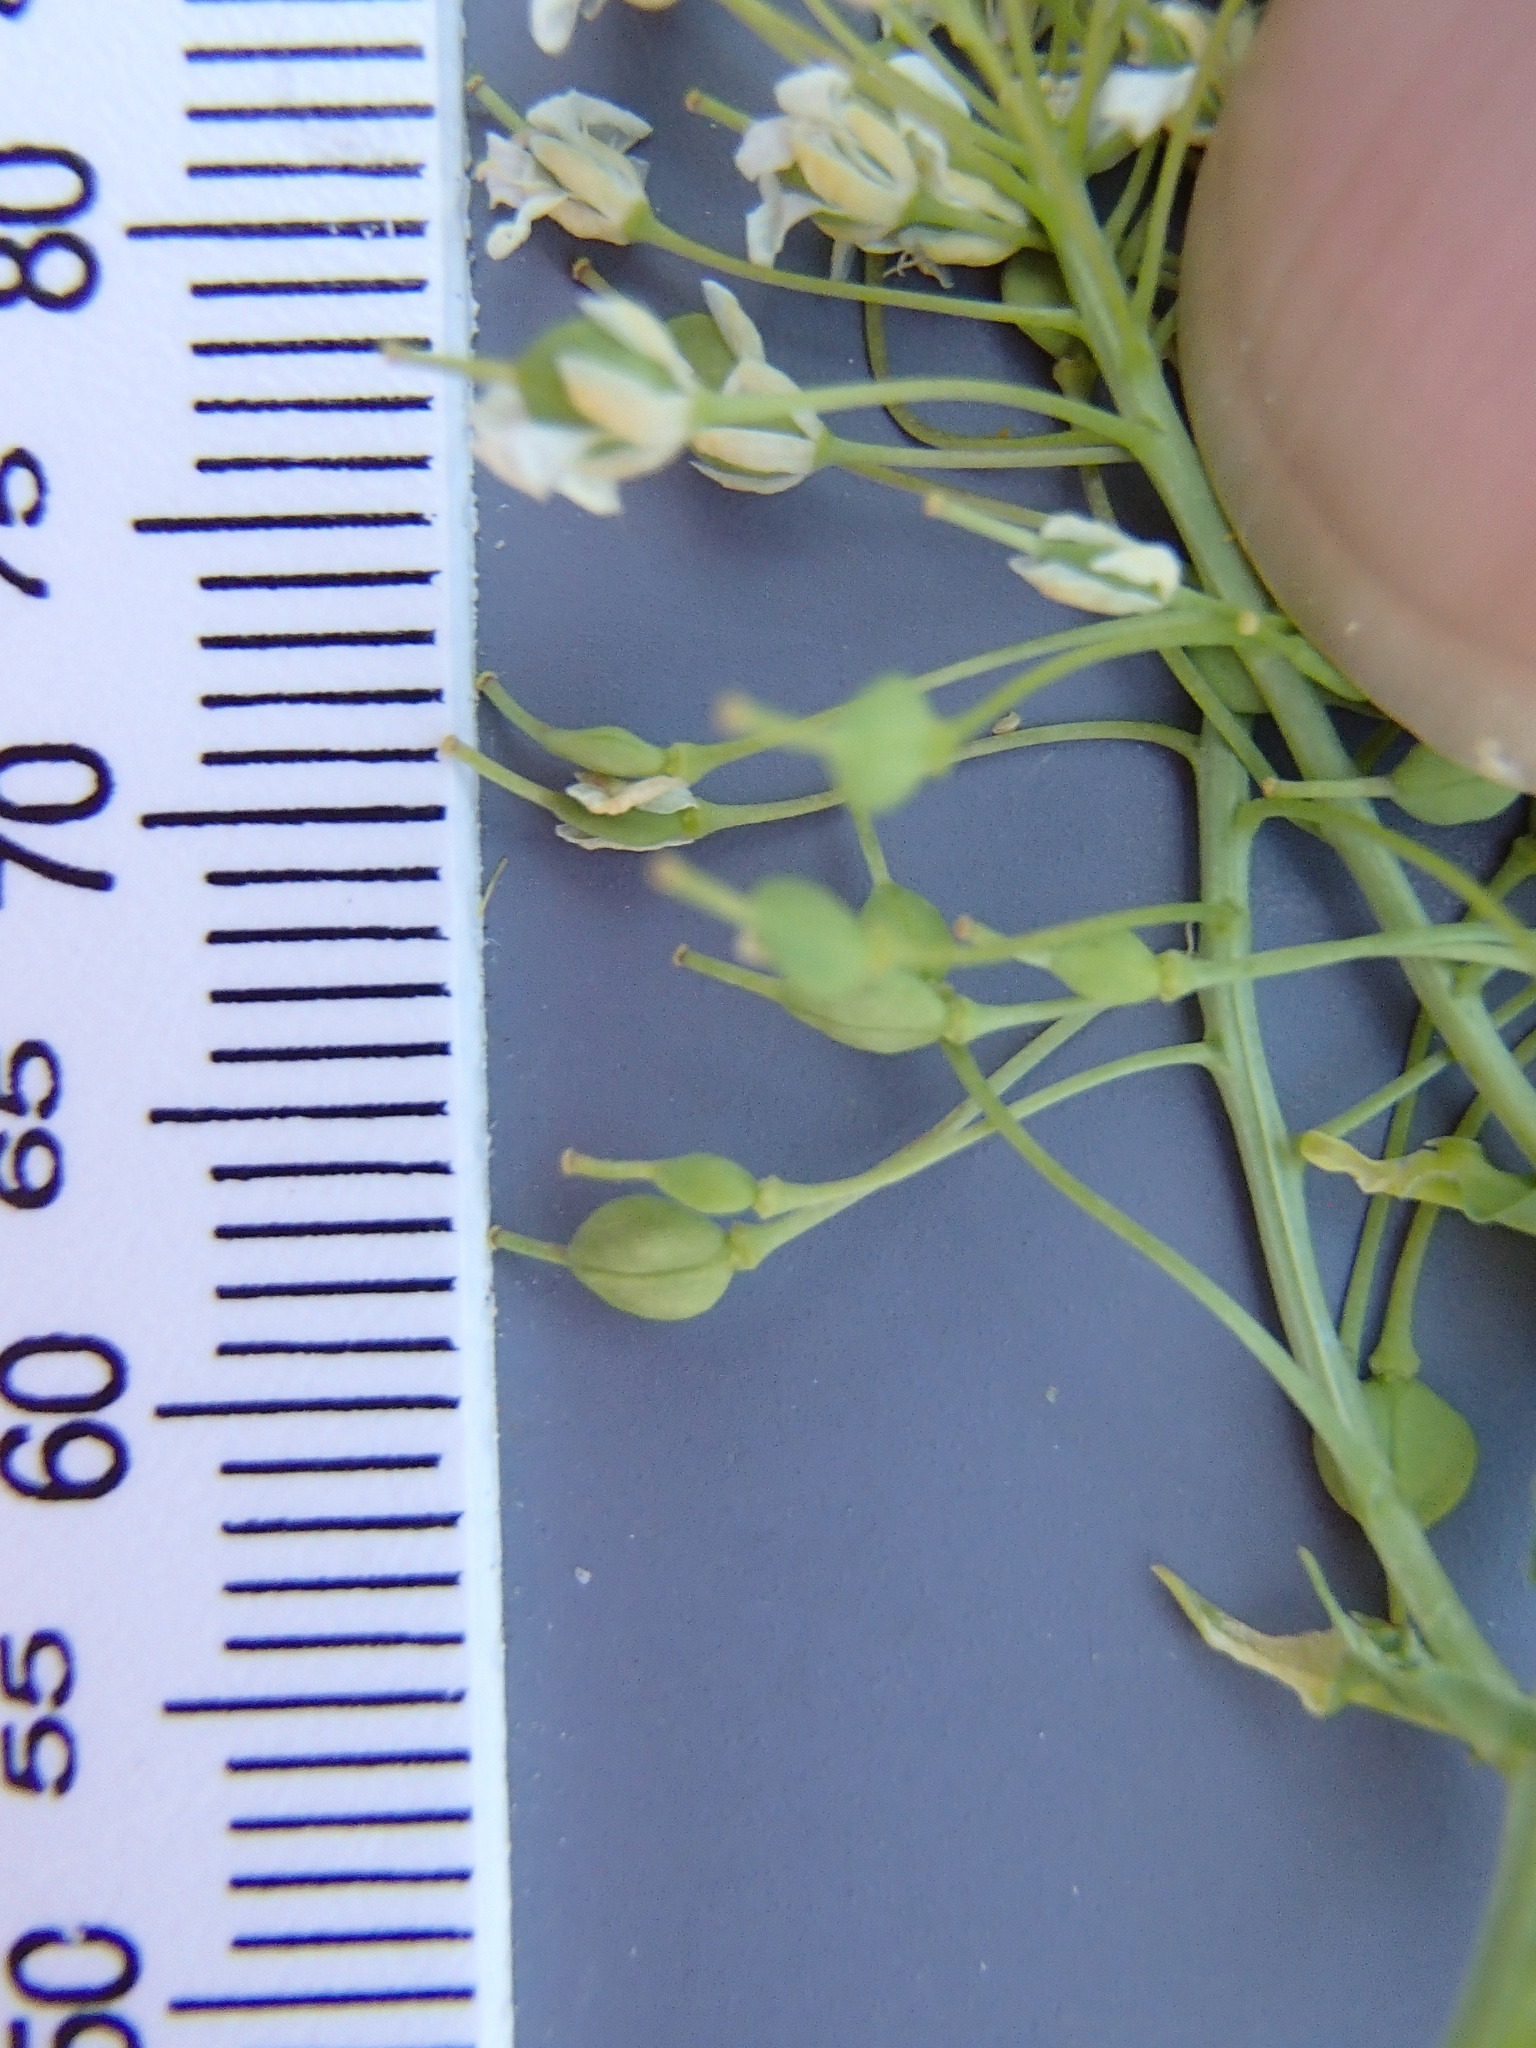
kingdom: Plantae
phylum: Tracheophyta
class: Magnoliopsida
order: Brassicales
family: Brassicaceae
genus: Lepidium
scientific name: Lepidium chalepense
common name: Orbicular whitetop
